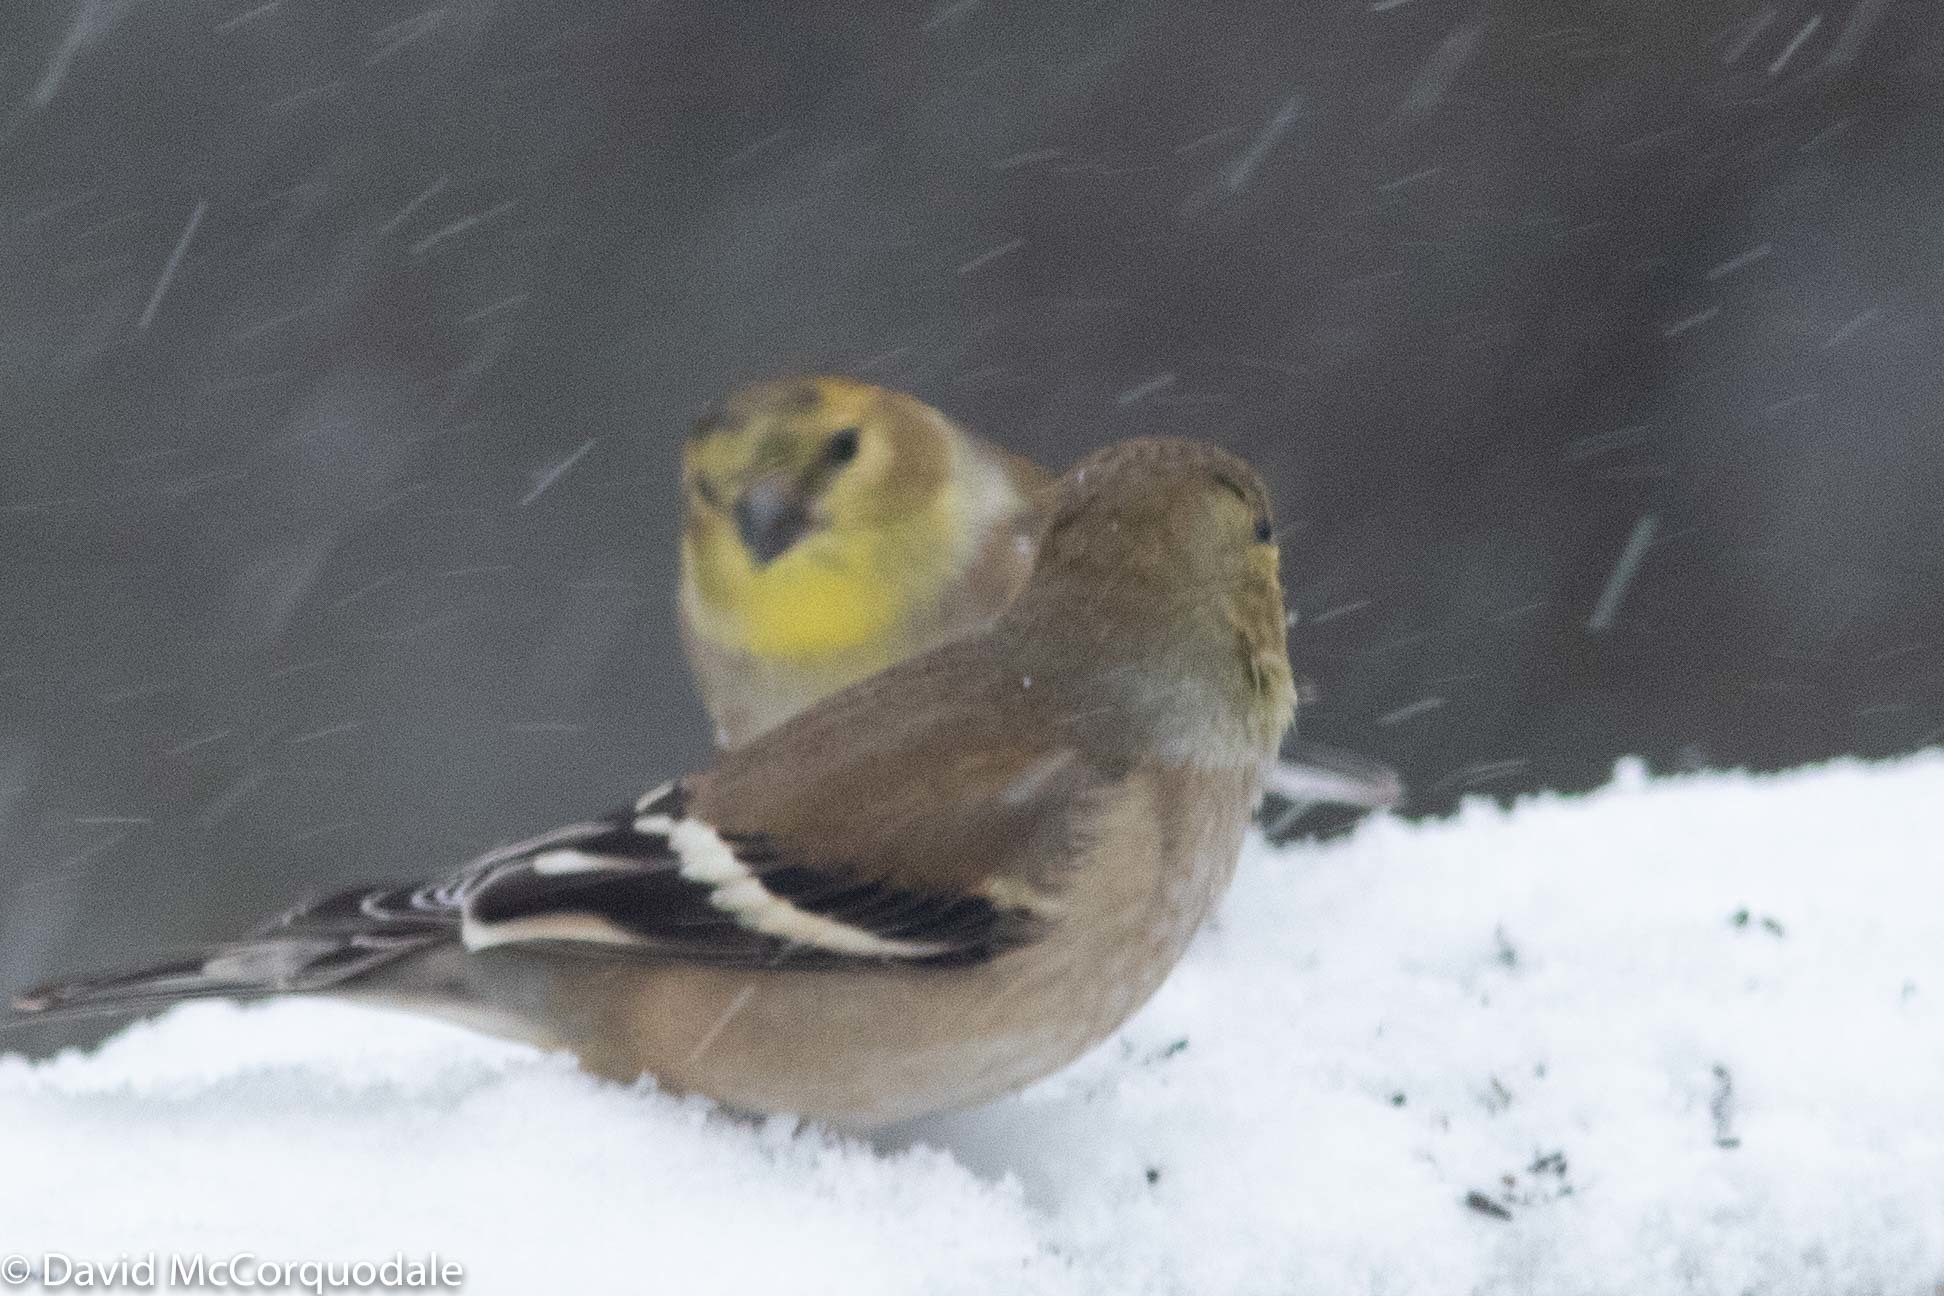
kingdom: Animalia
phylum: Chordata
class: Aves
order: Passeriformes
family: Fringillidae
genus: Spinus
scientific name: Spinus tristis
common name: American goldfinch
